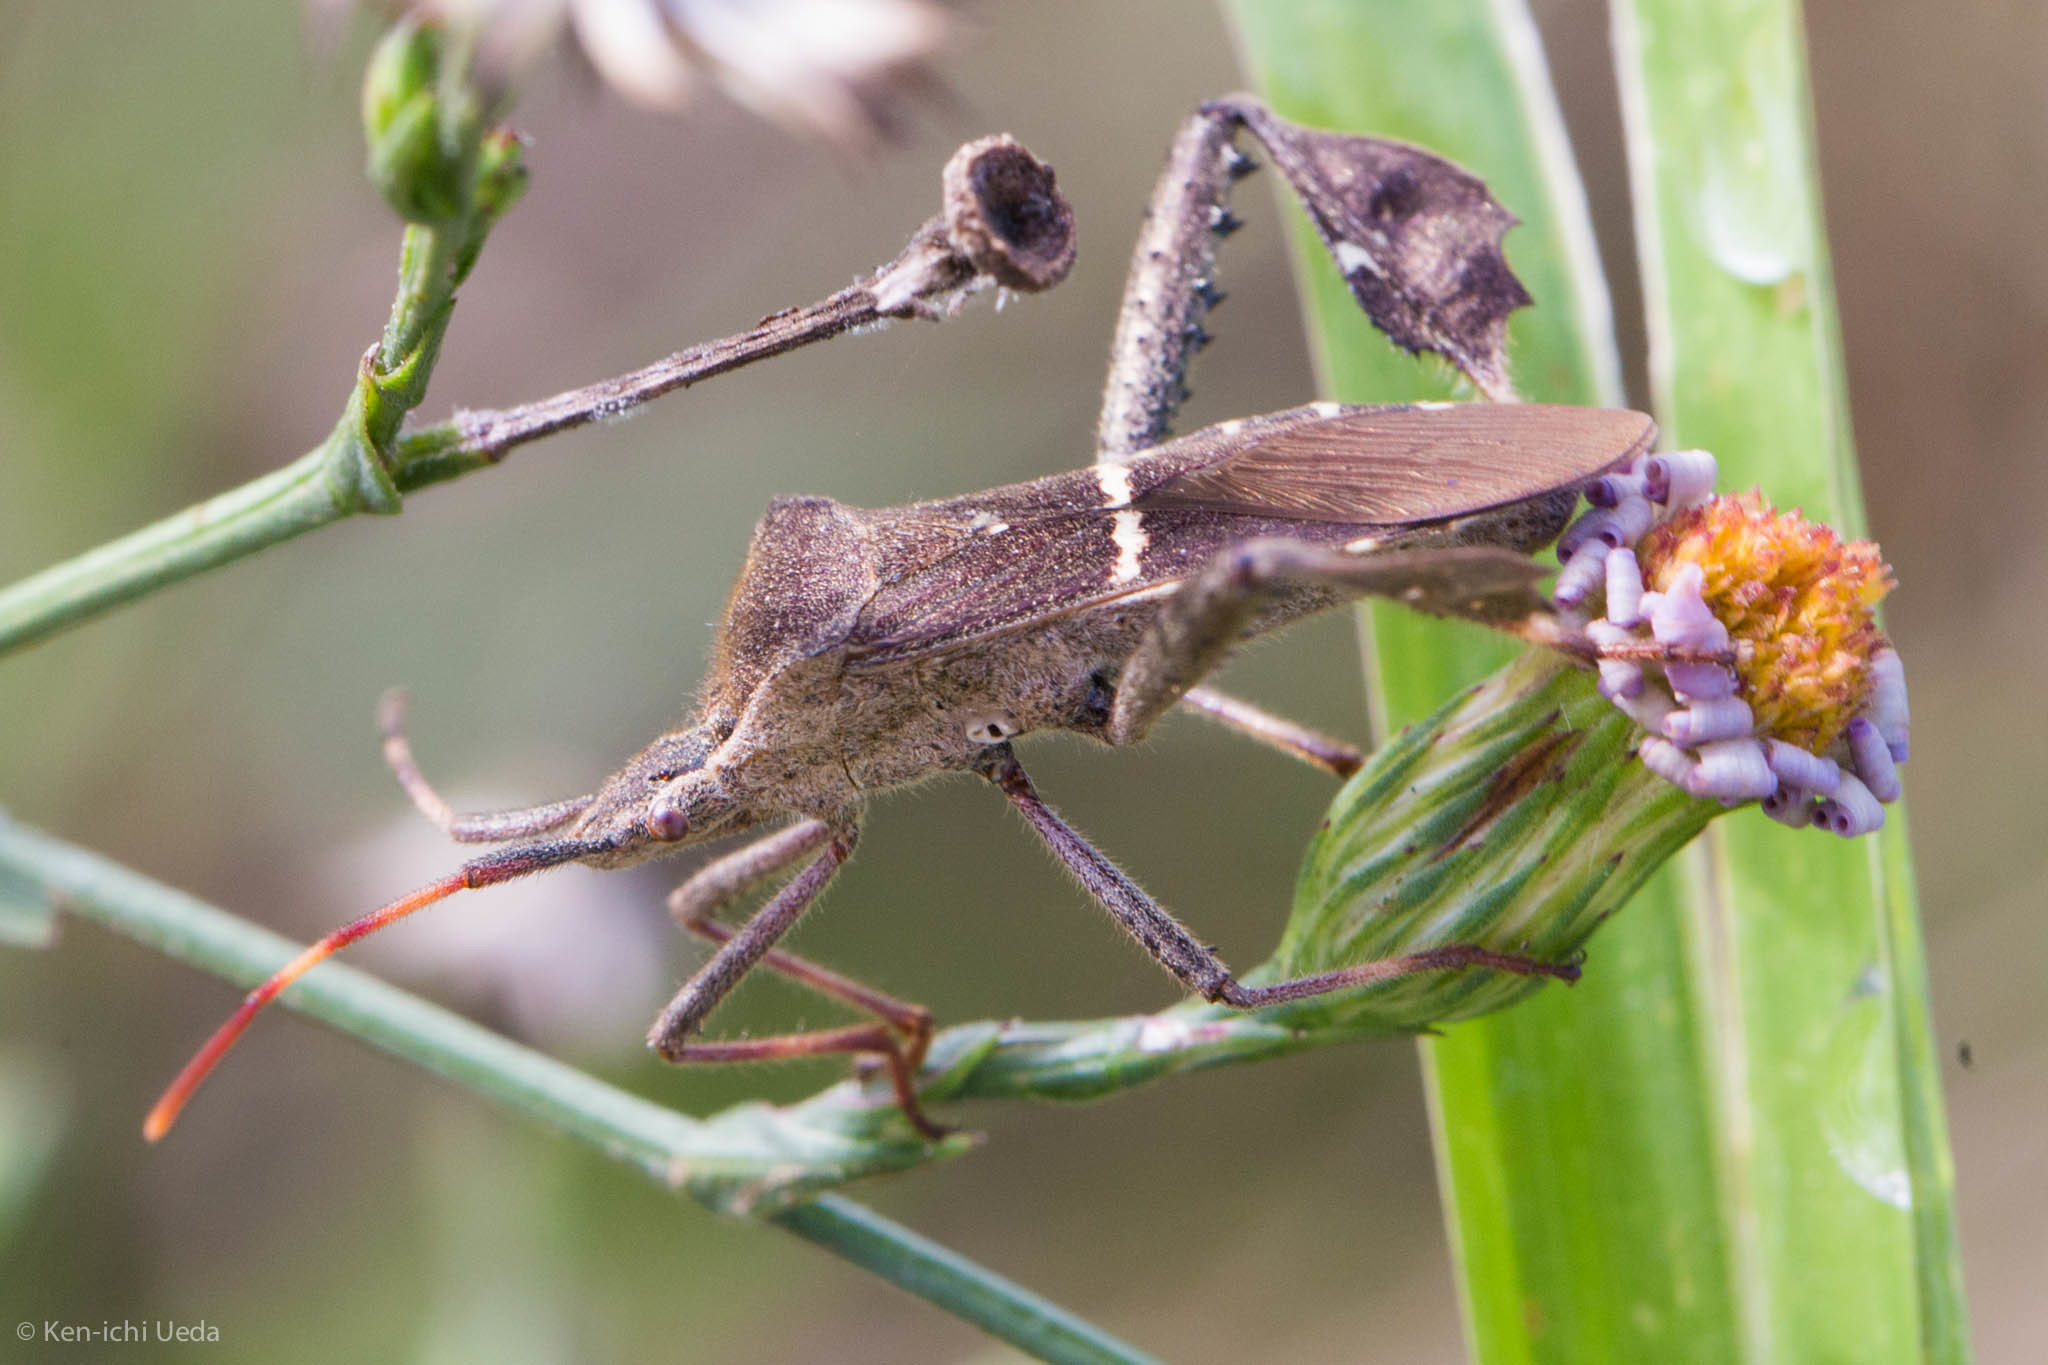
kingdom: Animalia
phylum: Arthropoda
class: Insecta
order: Hemiptera
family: Coreidae
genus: Leptoglossus
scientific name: Leptoglossus phyllopus
